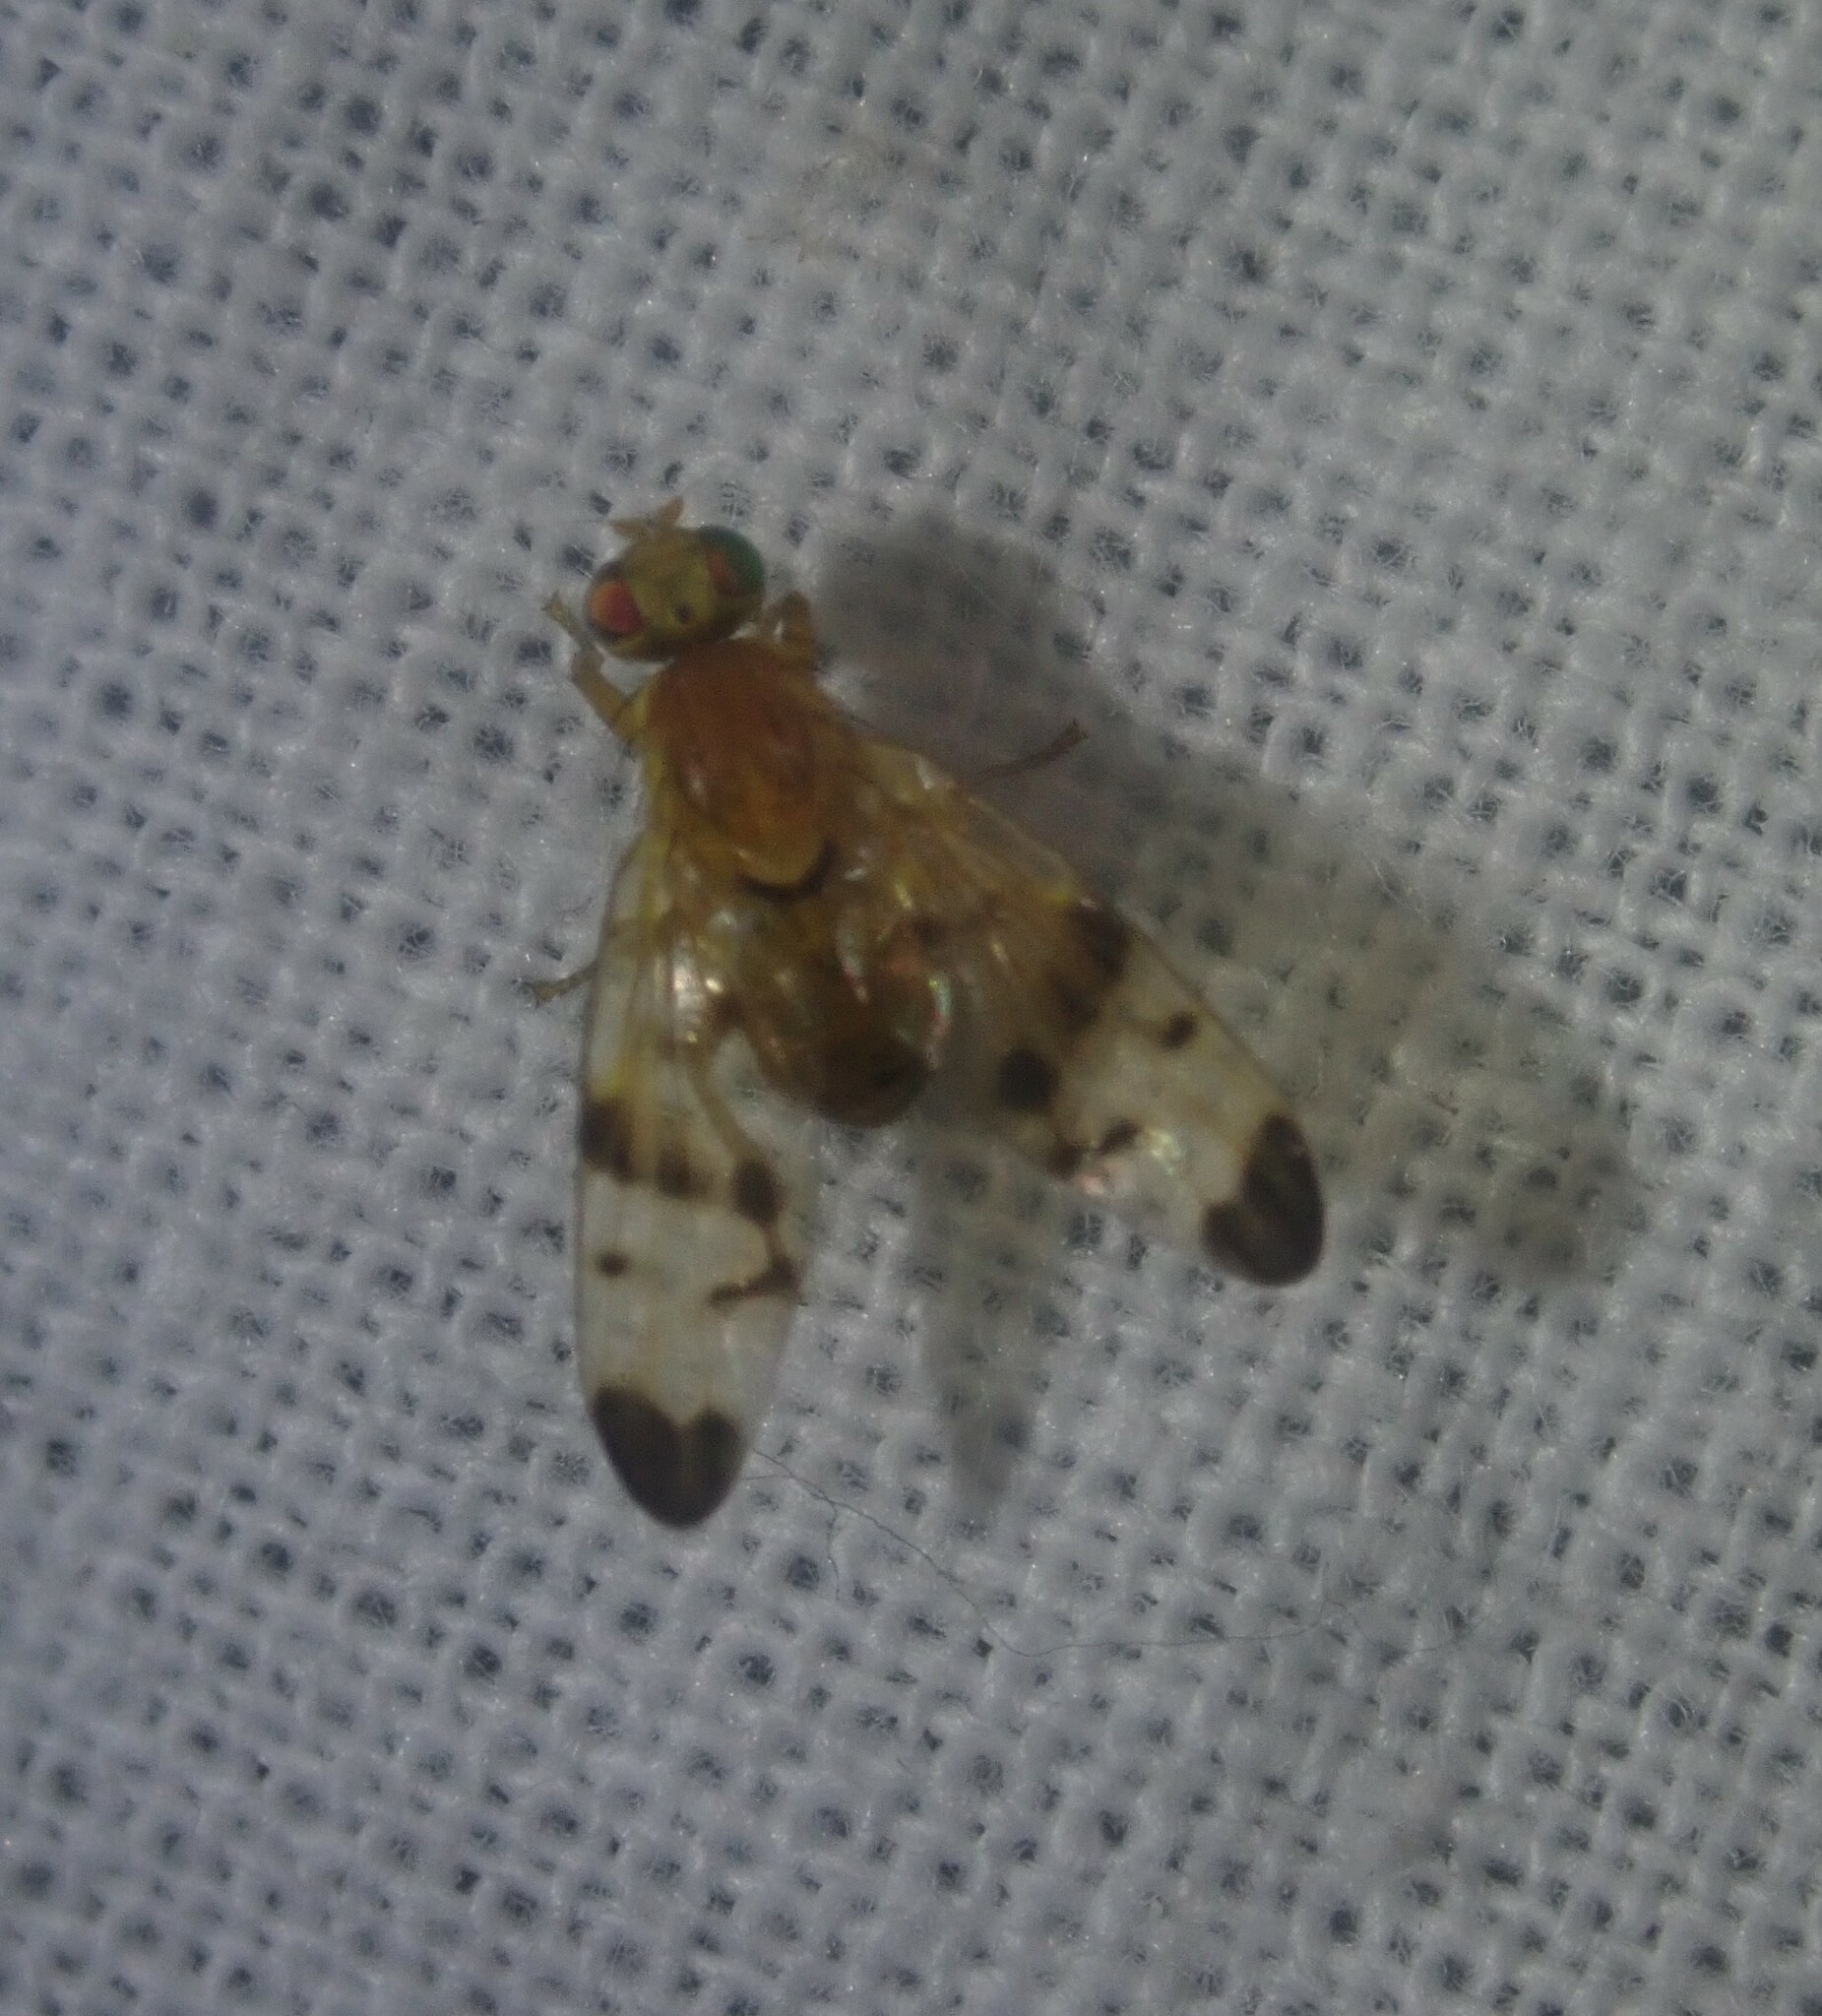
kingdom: Animalia
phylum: Arthropoda
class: Insecta
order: Diptera
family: Tephritidae
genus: Trypeta
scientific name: Trypeta immaculata
